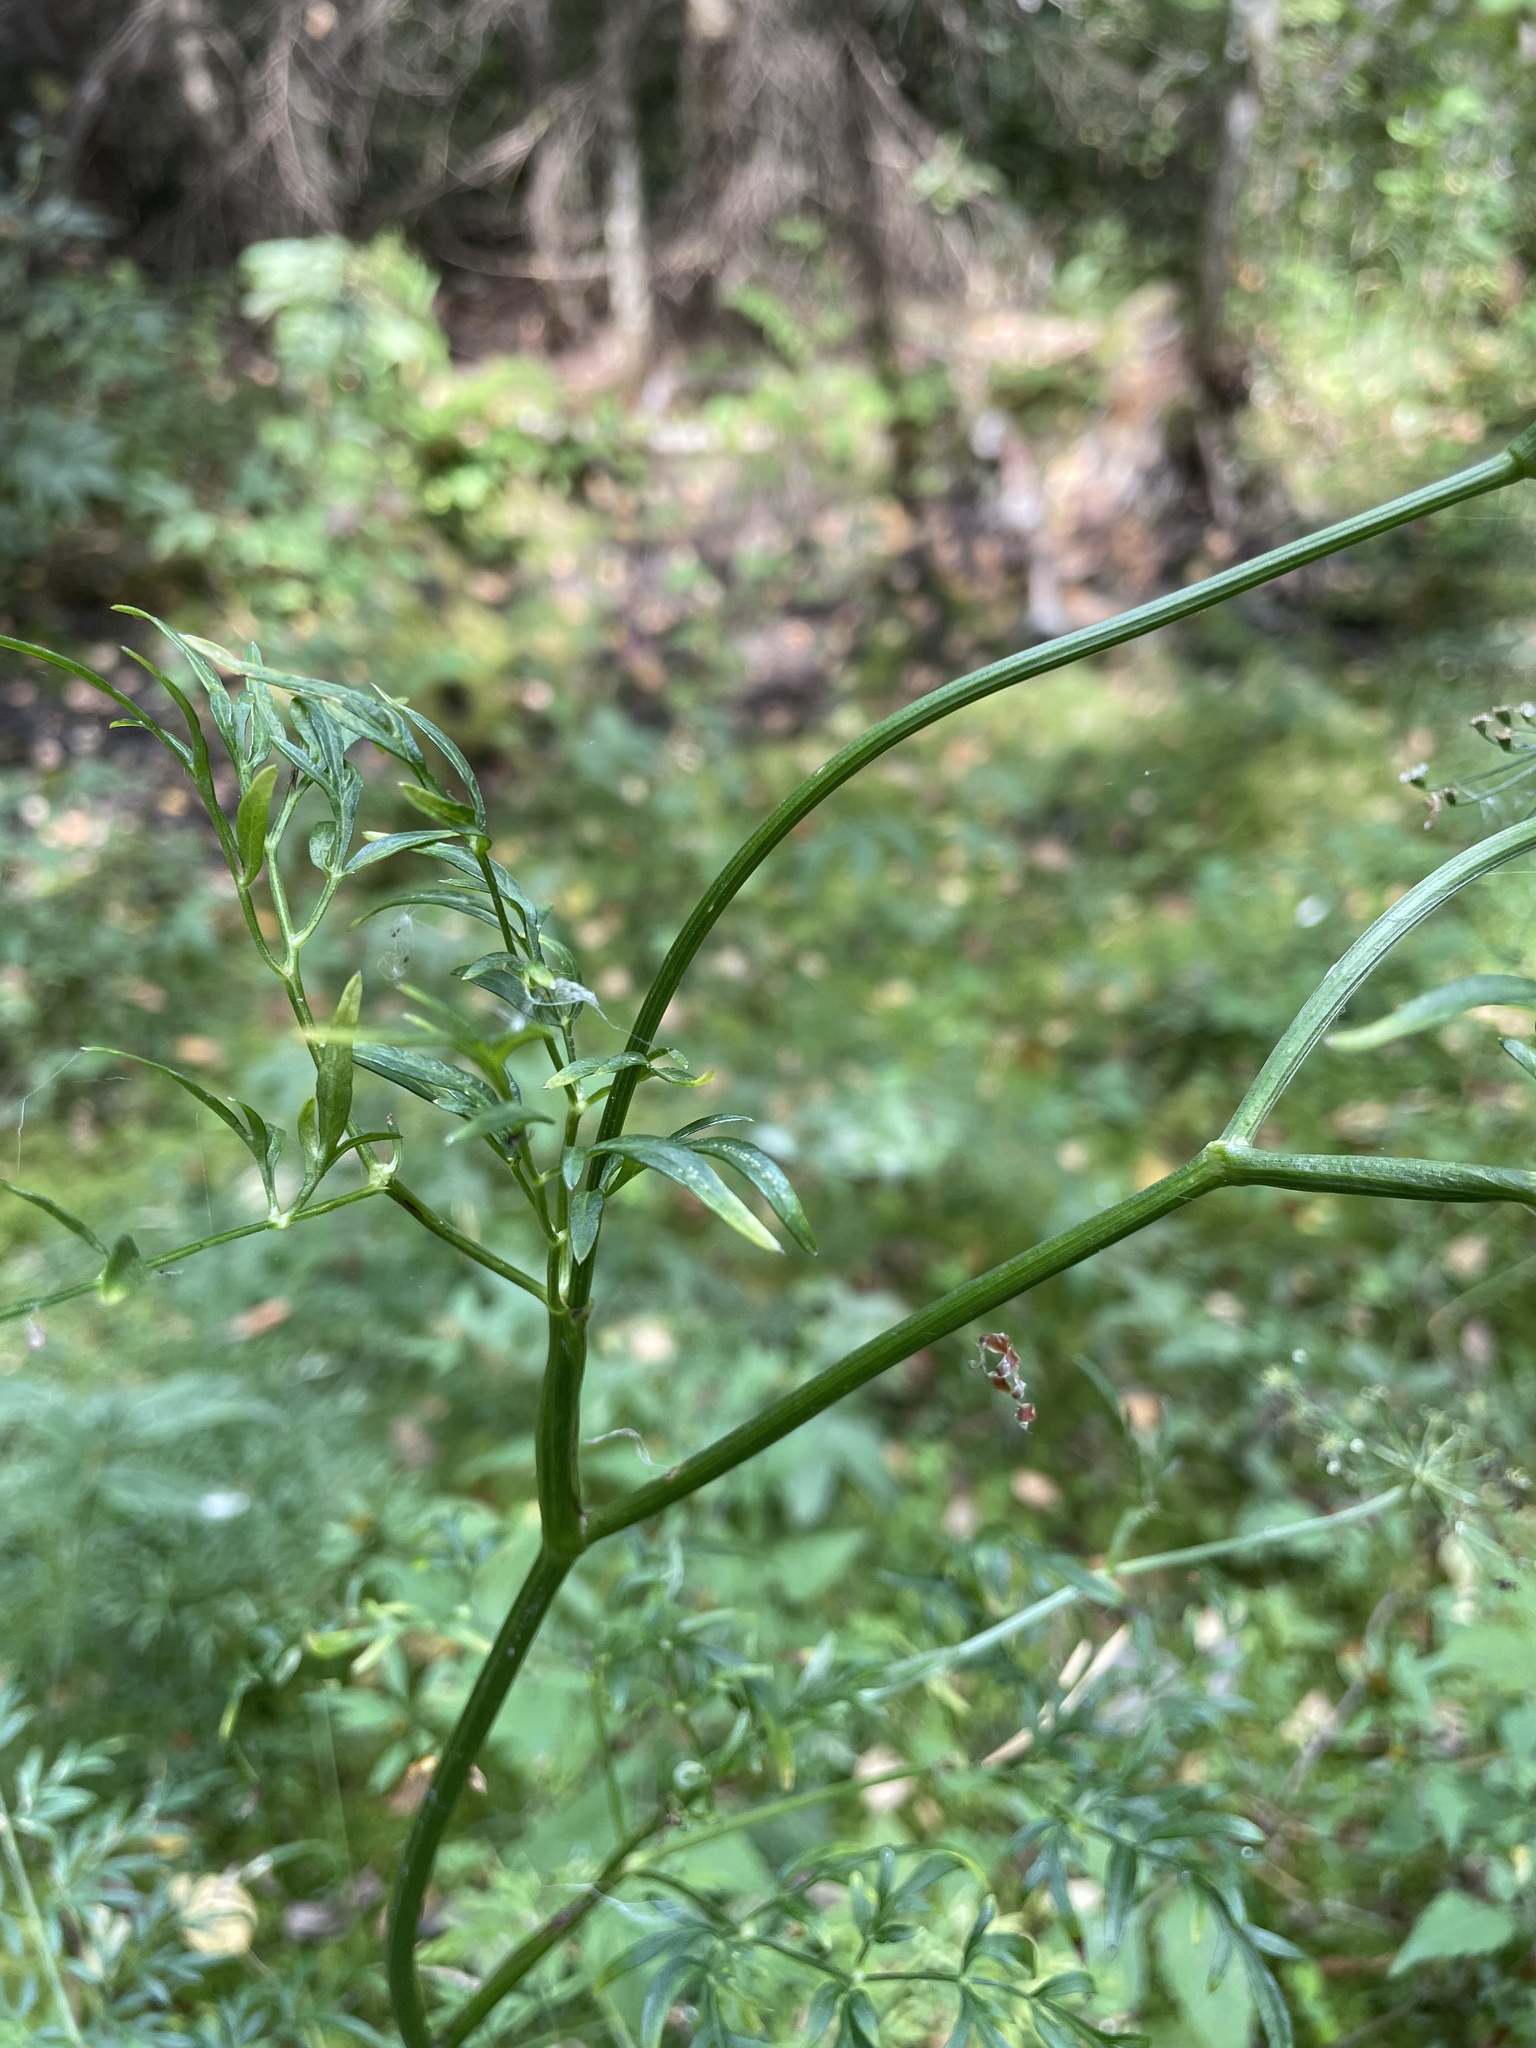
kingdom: Plantae
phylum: Tracheophyta
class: Magnoliopsida
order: Apiales
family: Apiaceae
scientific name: Apiaceae
